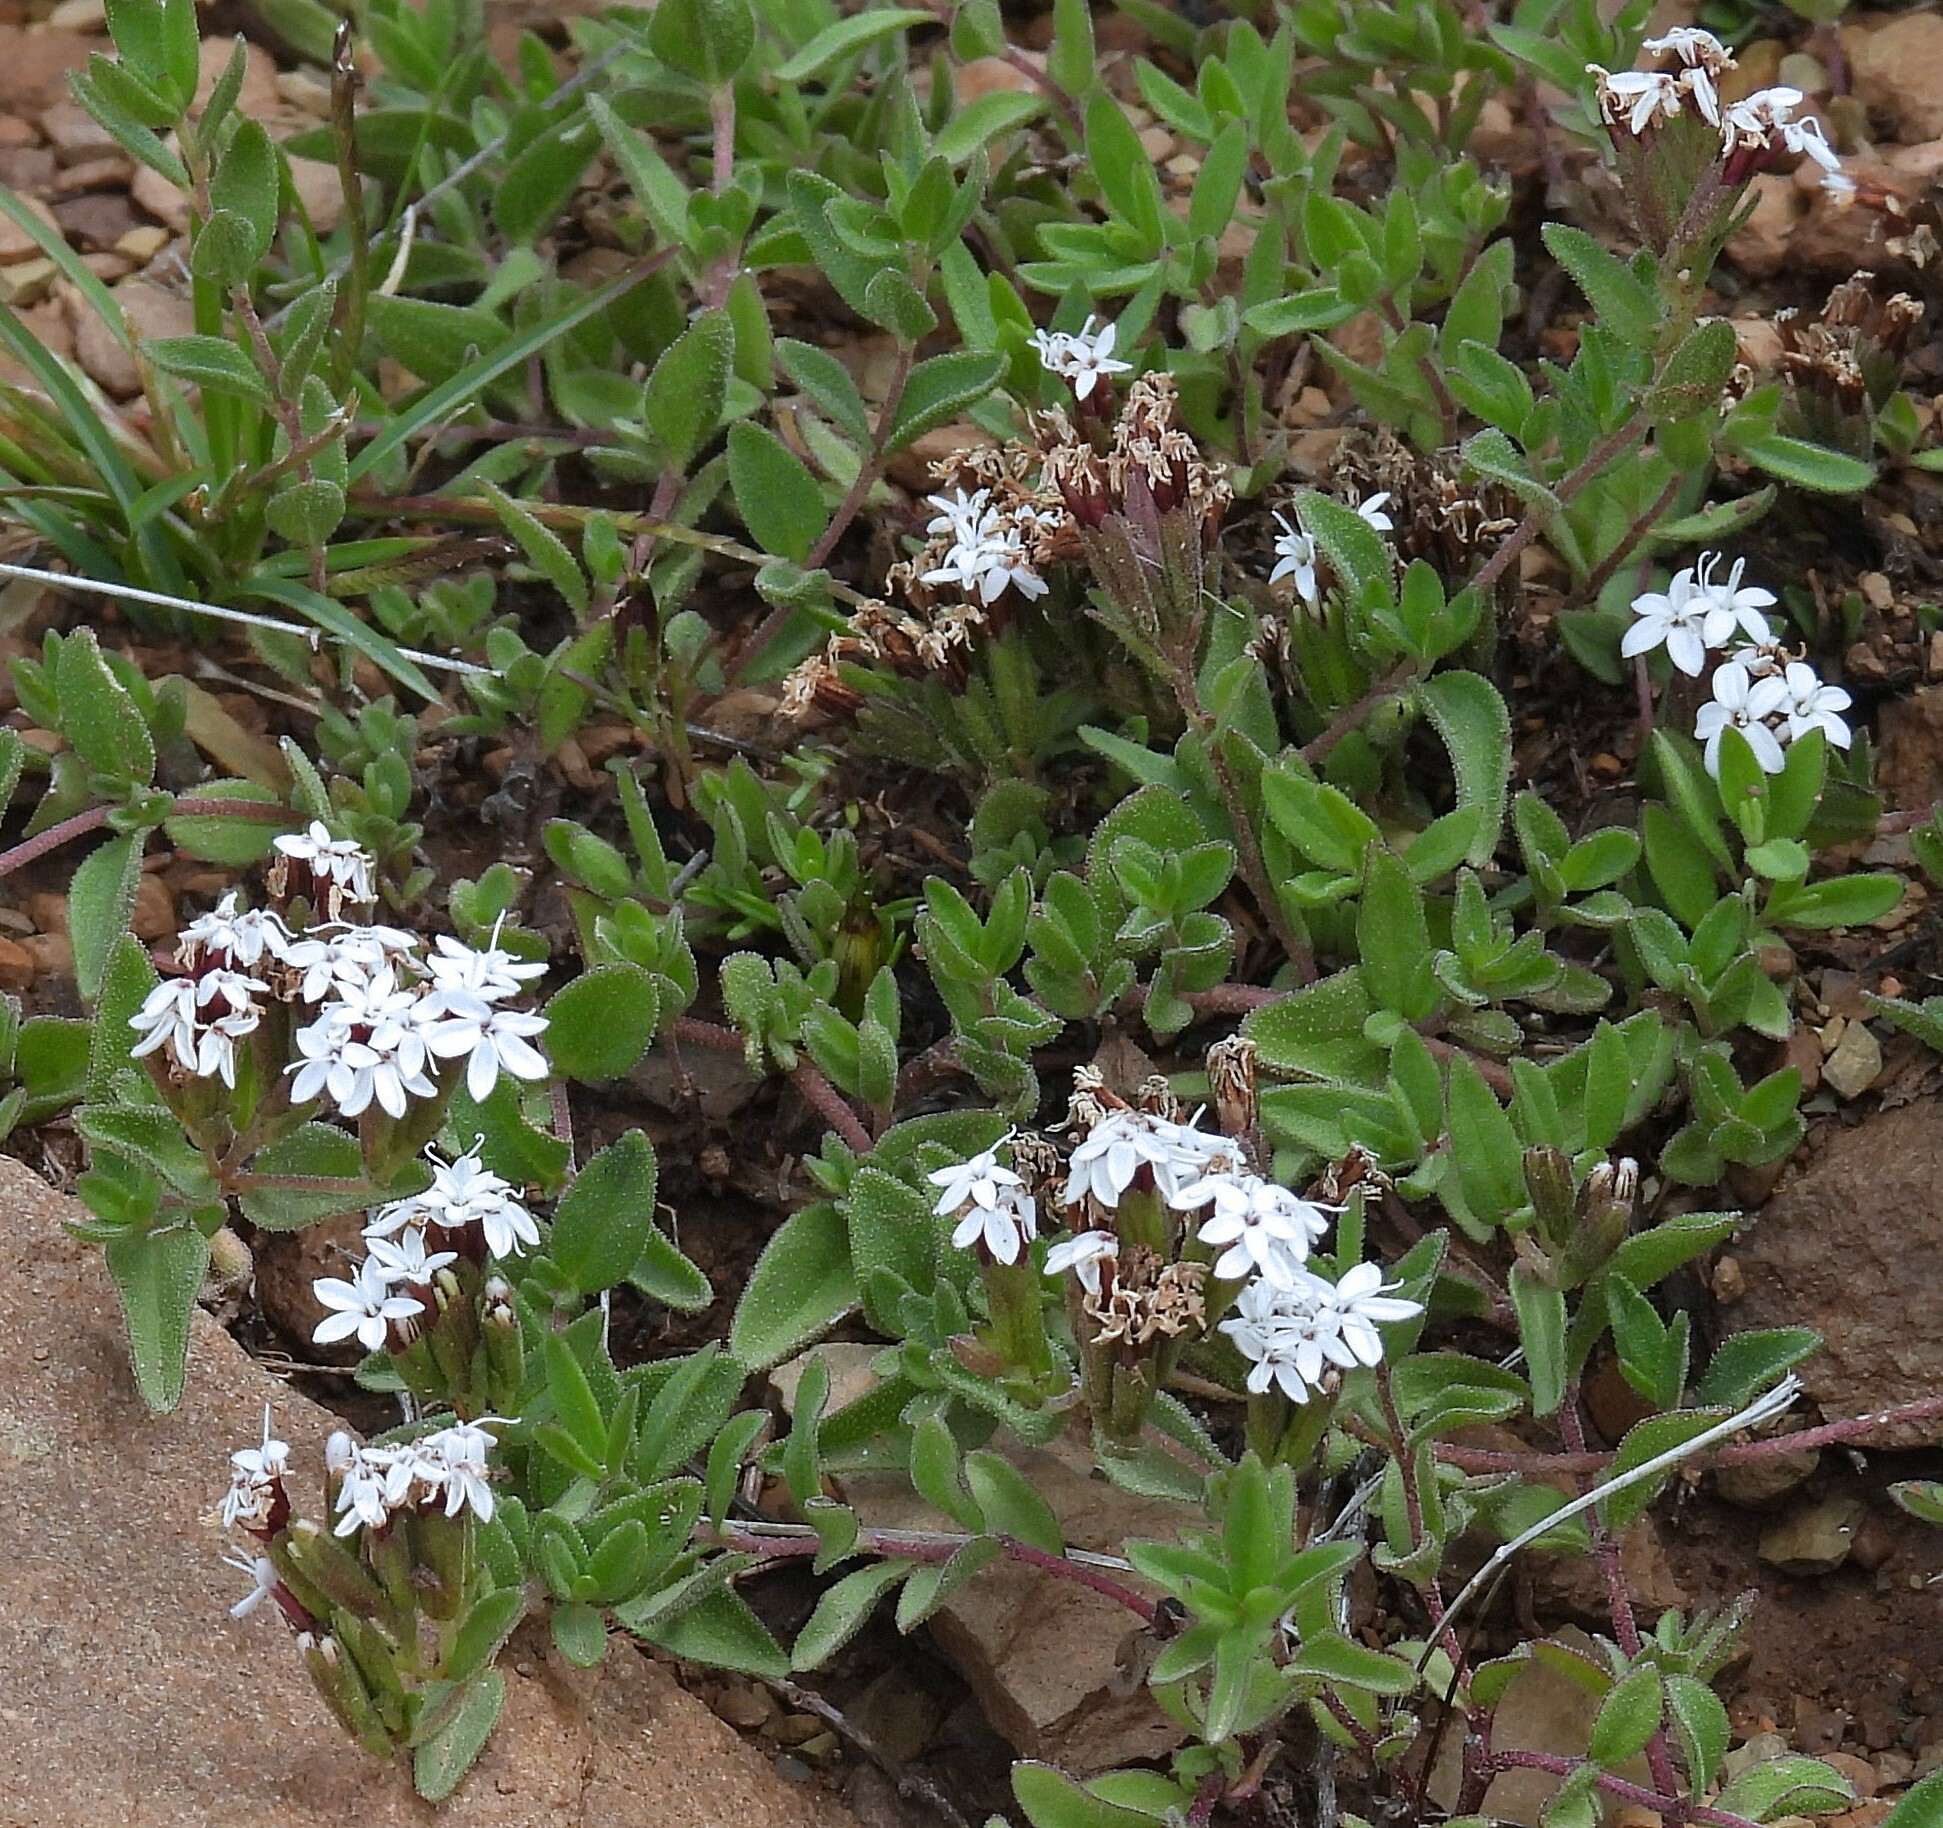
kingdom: Plantae
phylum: Tracheophyta
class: Magnoliopsida
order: Asterales
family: Asteraceae
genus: Stevia
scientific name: Stevia minor
